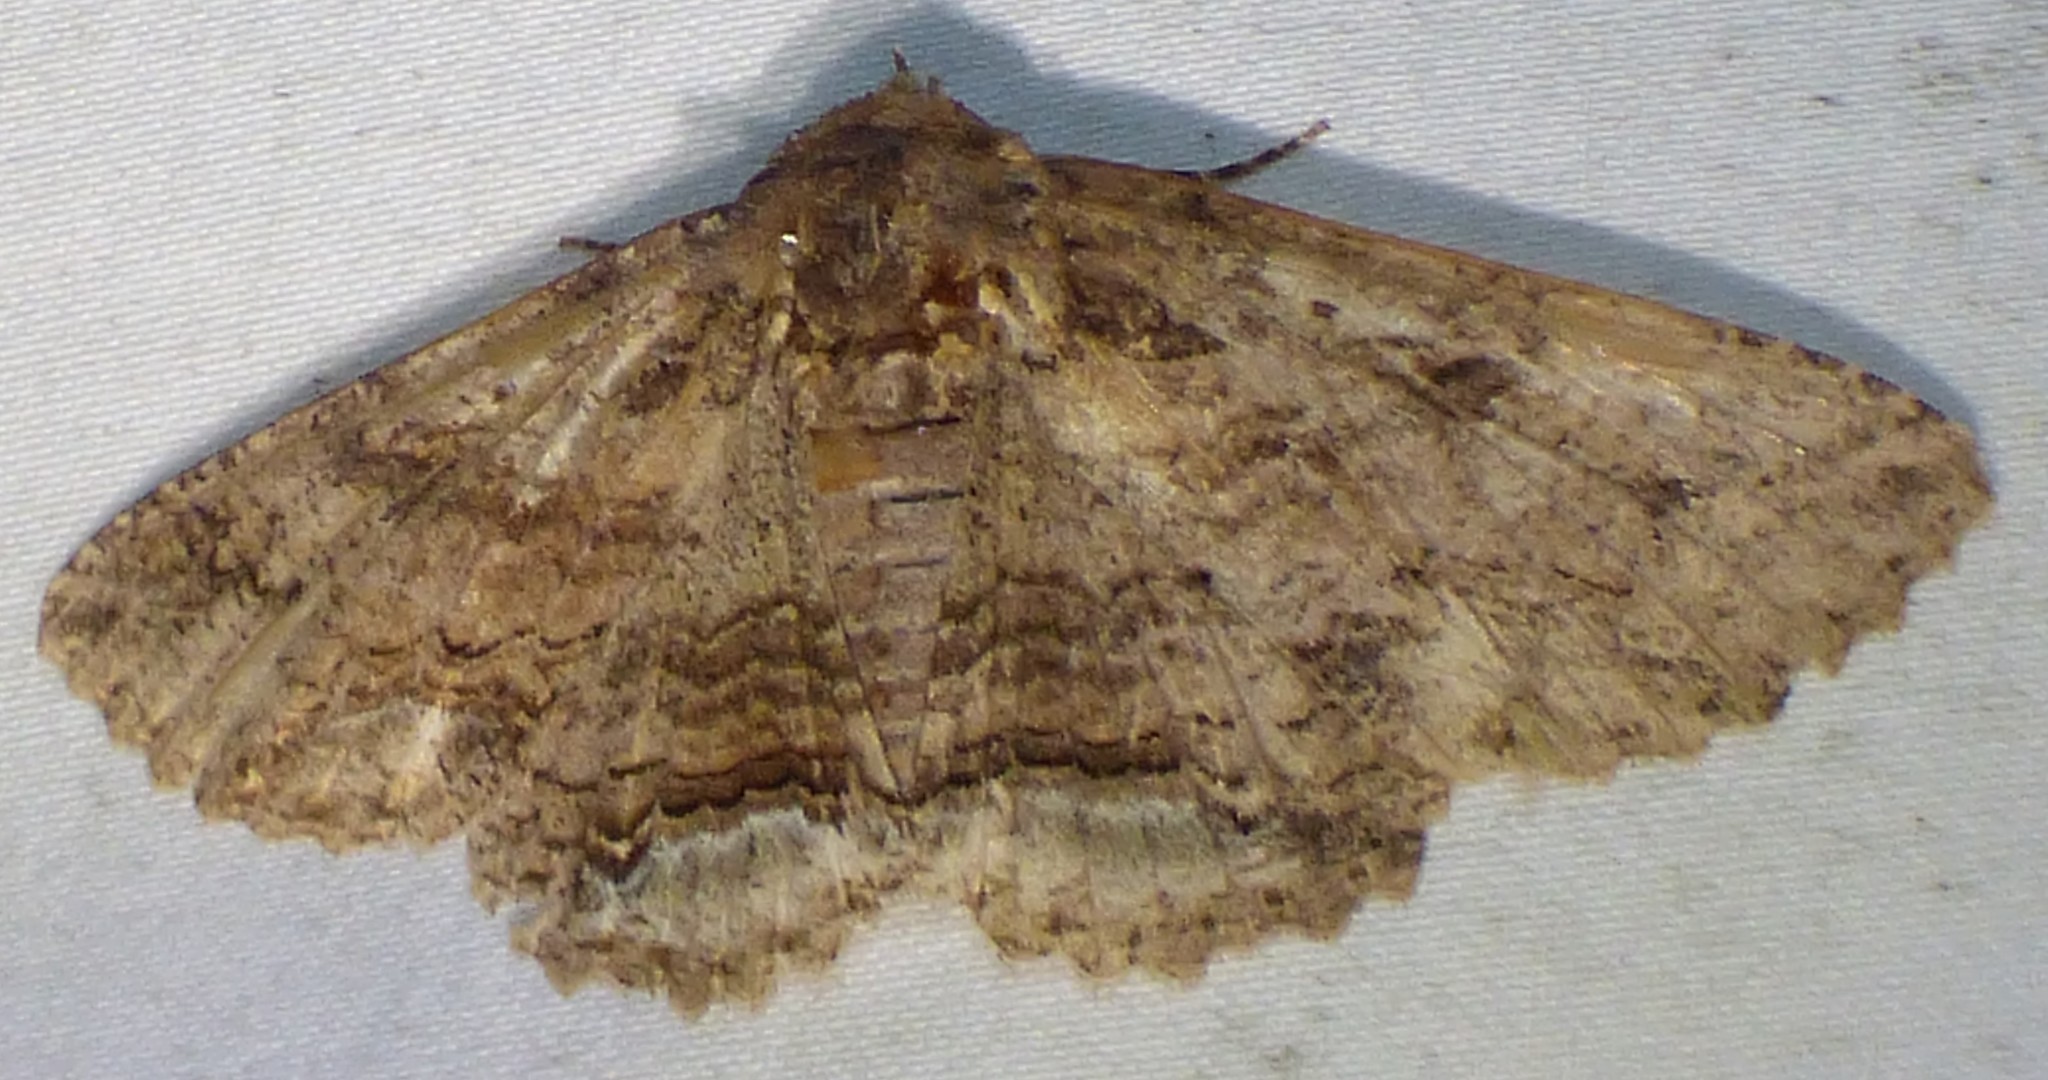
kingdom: Animalia
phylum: Arthropoda
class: Insecta
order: Lepidoptera
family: Erebidae
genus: Zale
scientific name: Zale lunata
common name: Lunate zale moth
